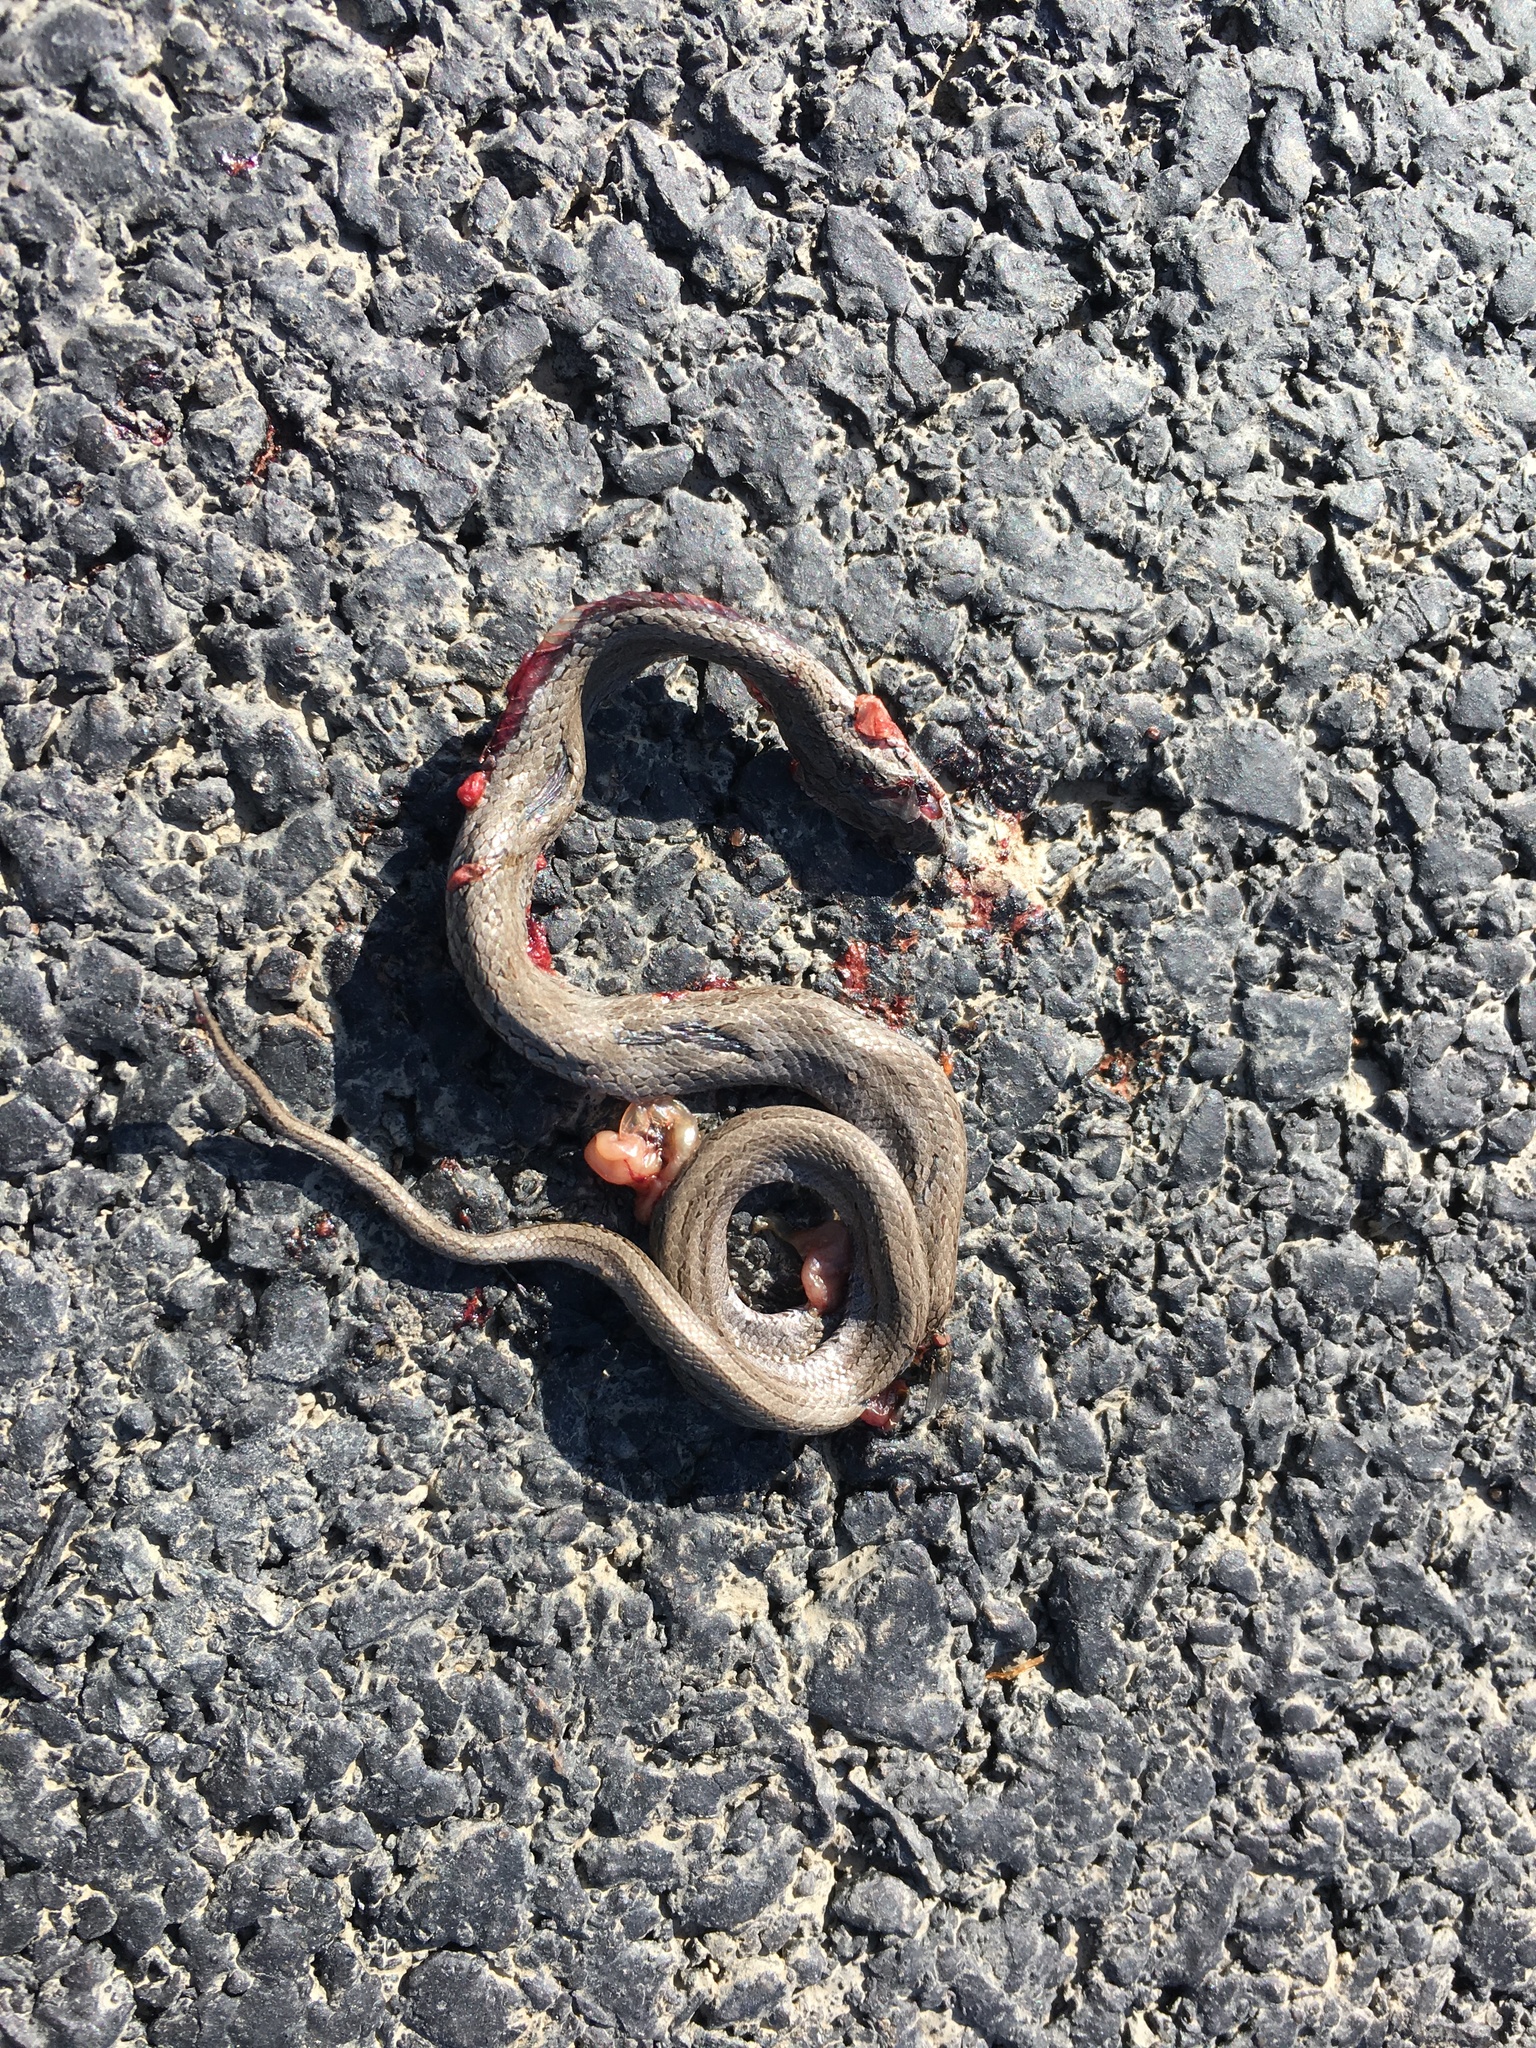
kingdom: Animalia
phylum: Chordata
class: Squamata
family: Colubridae
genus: Oocatochus
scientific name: Oocatochus rufodorsatus
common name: Frog-eating rat snake
